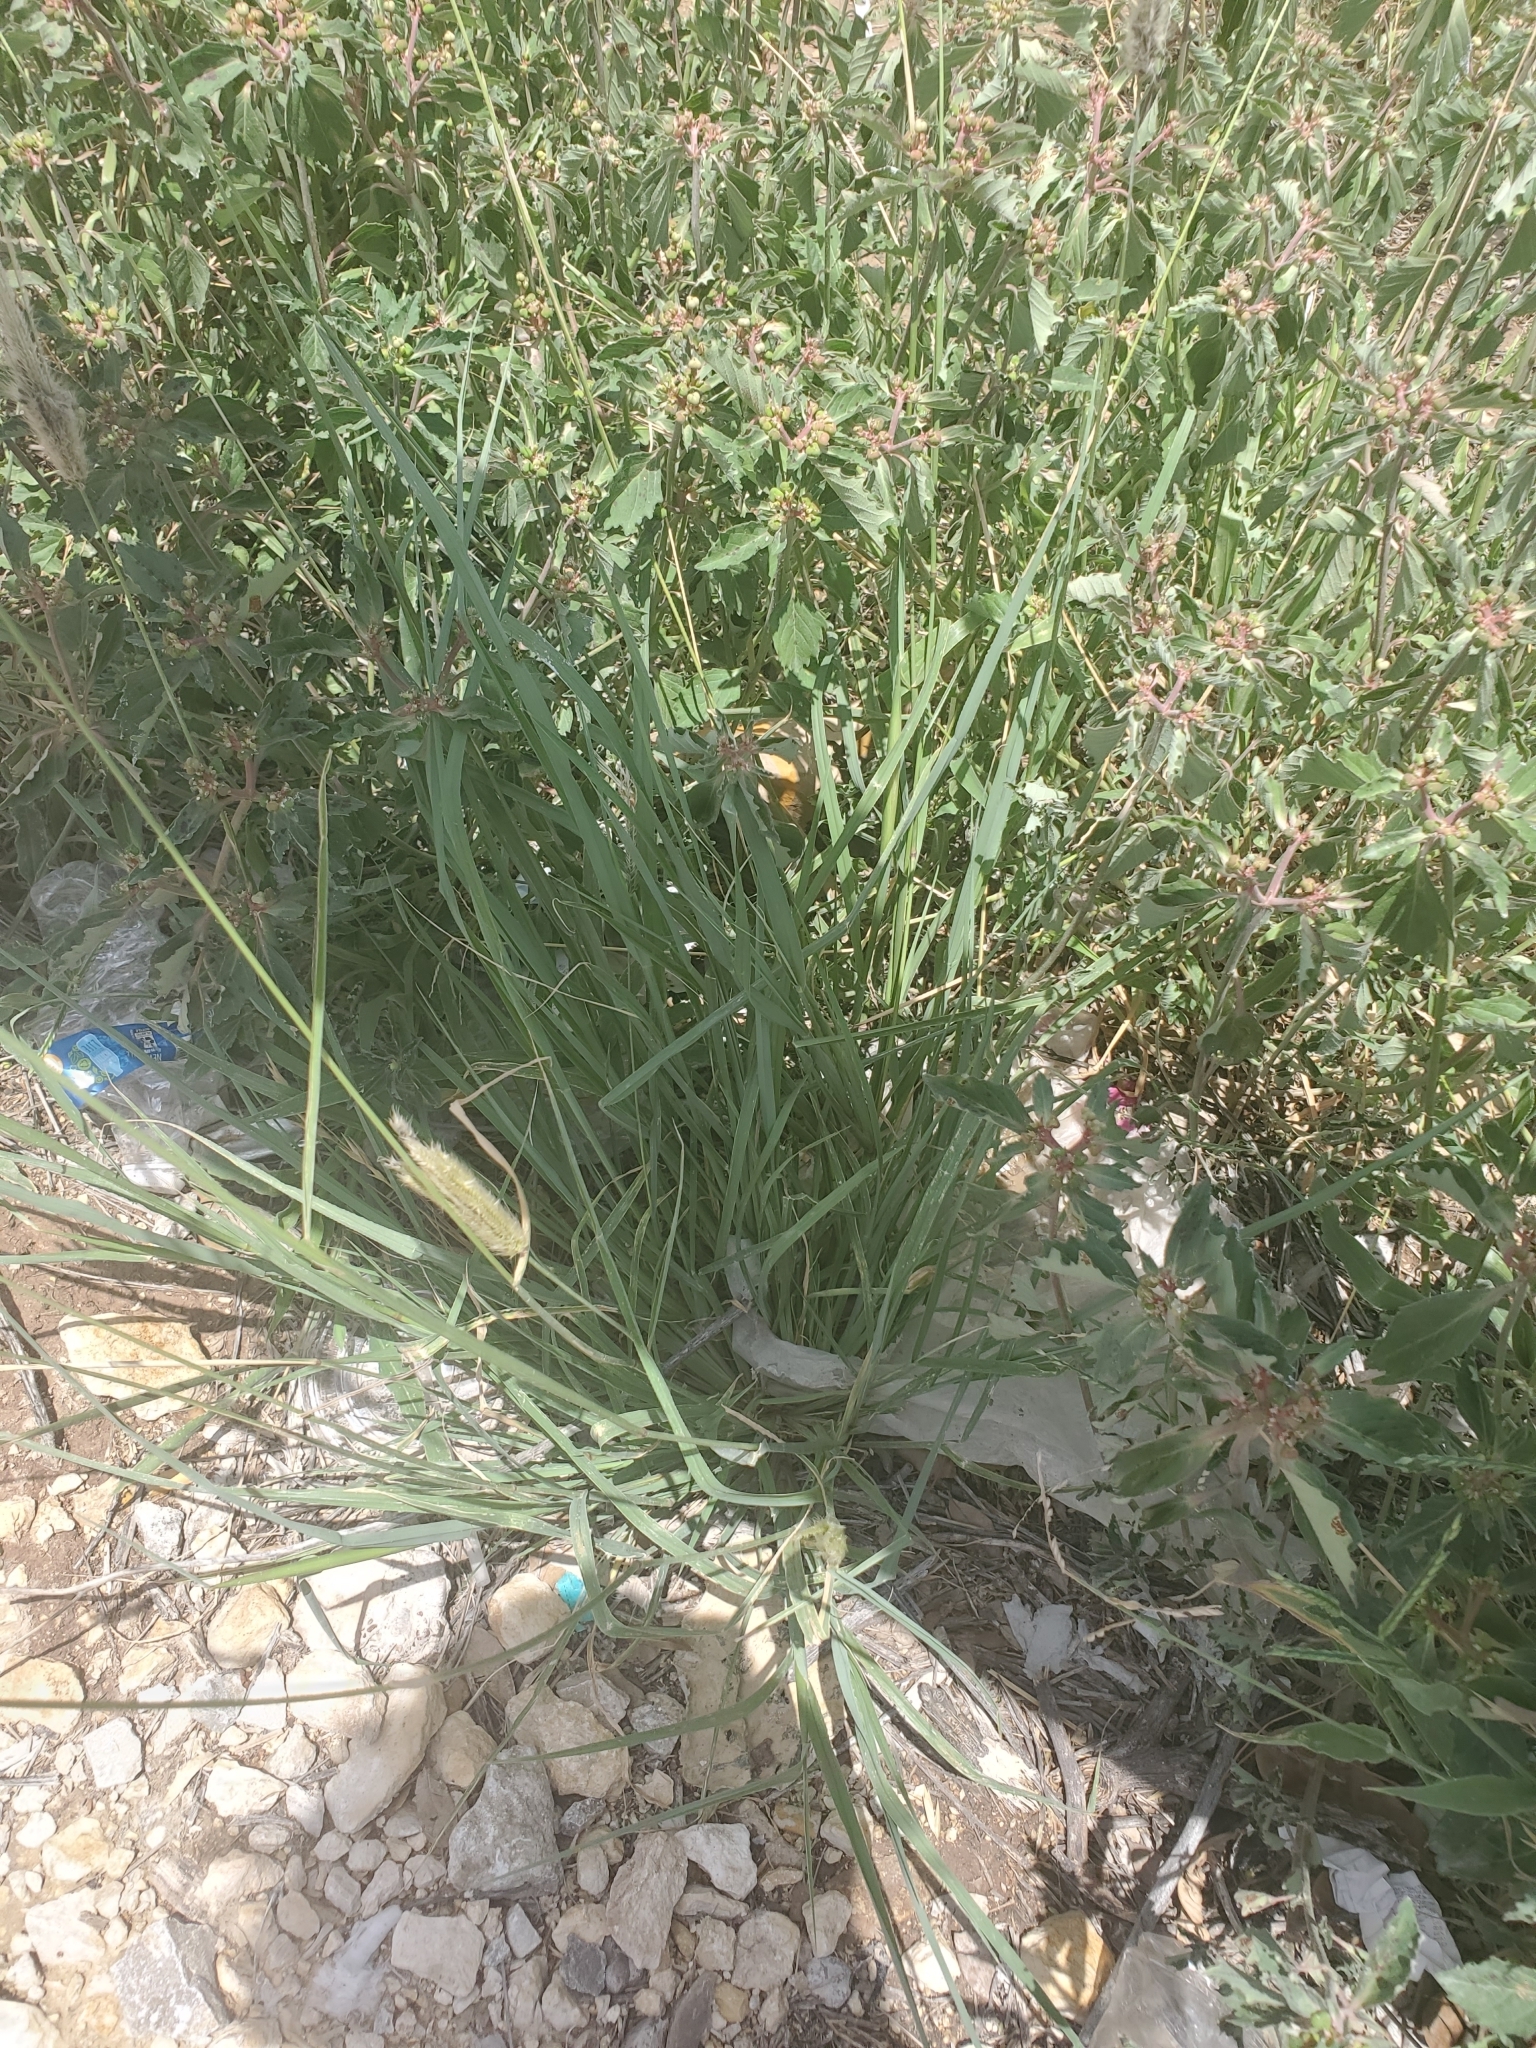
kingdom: Plantae
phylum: Tracheophyta
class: Liliopsida
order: Poales
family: Poaceae
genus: Chloris
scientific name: Chloris virgata
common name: Feathery rhodes-grass
